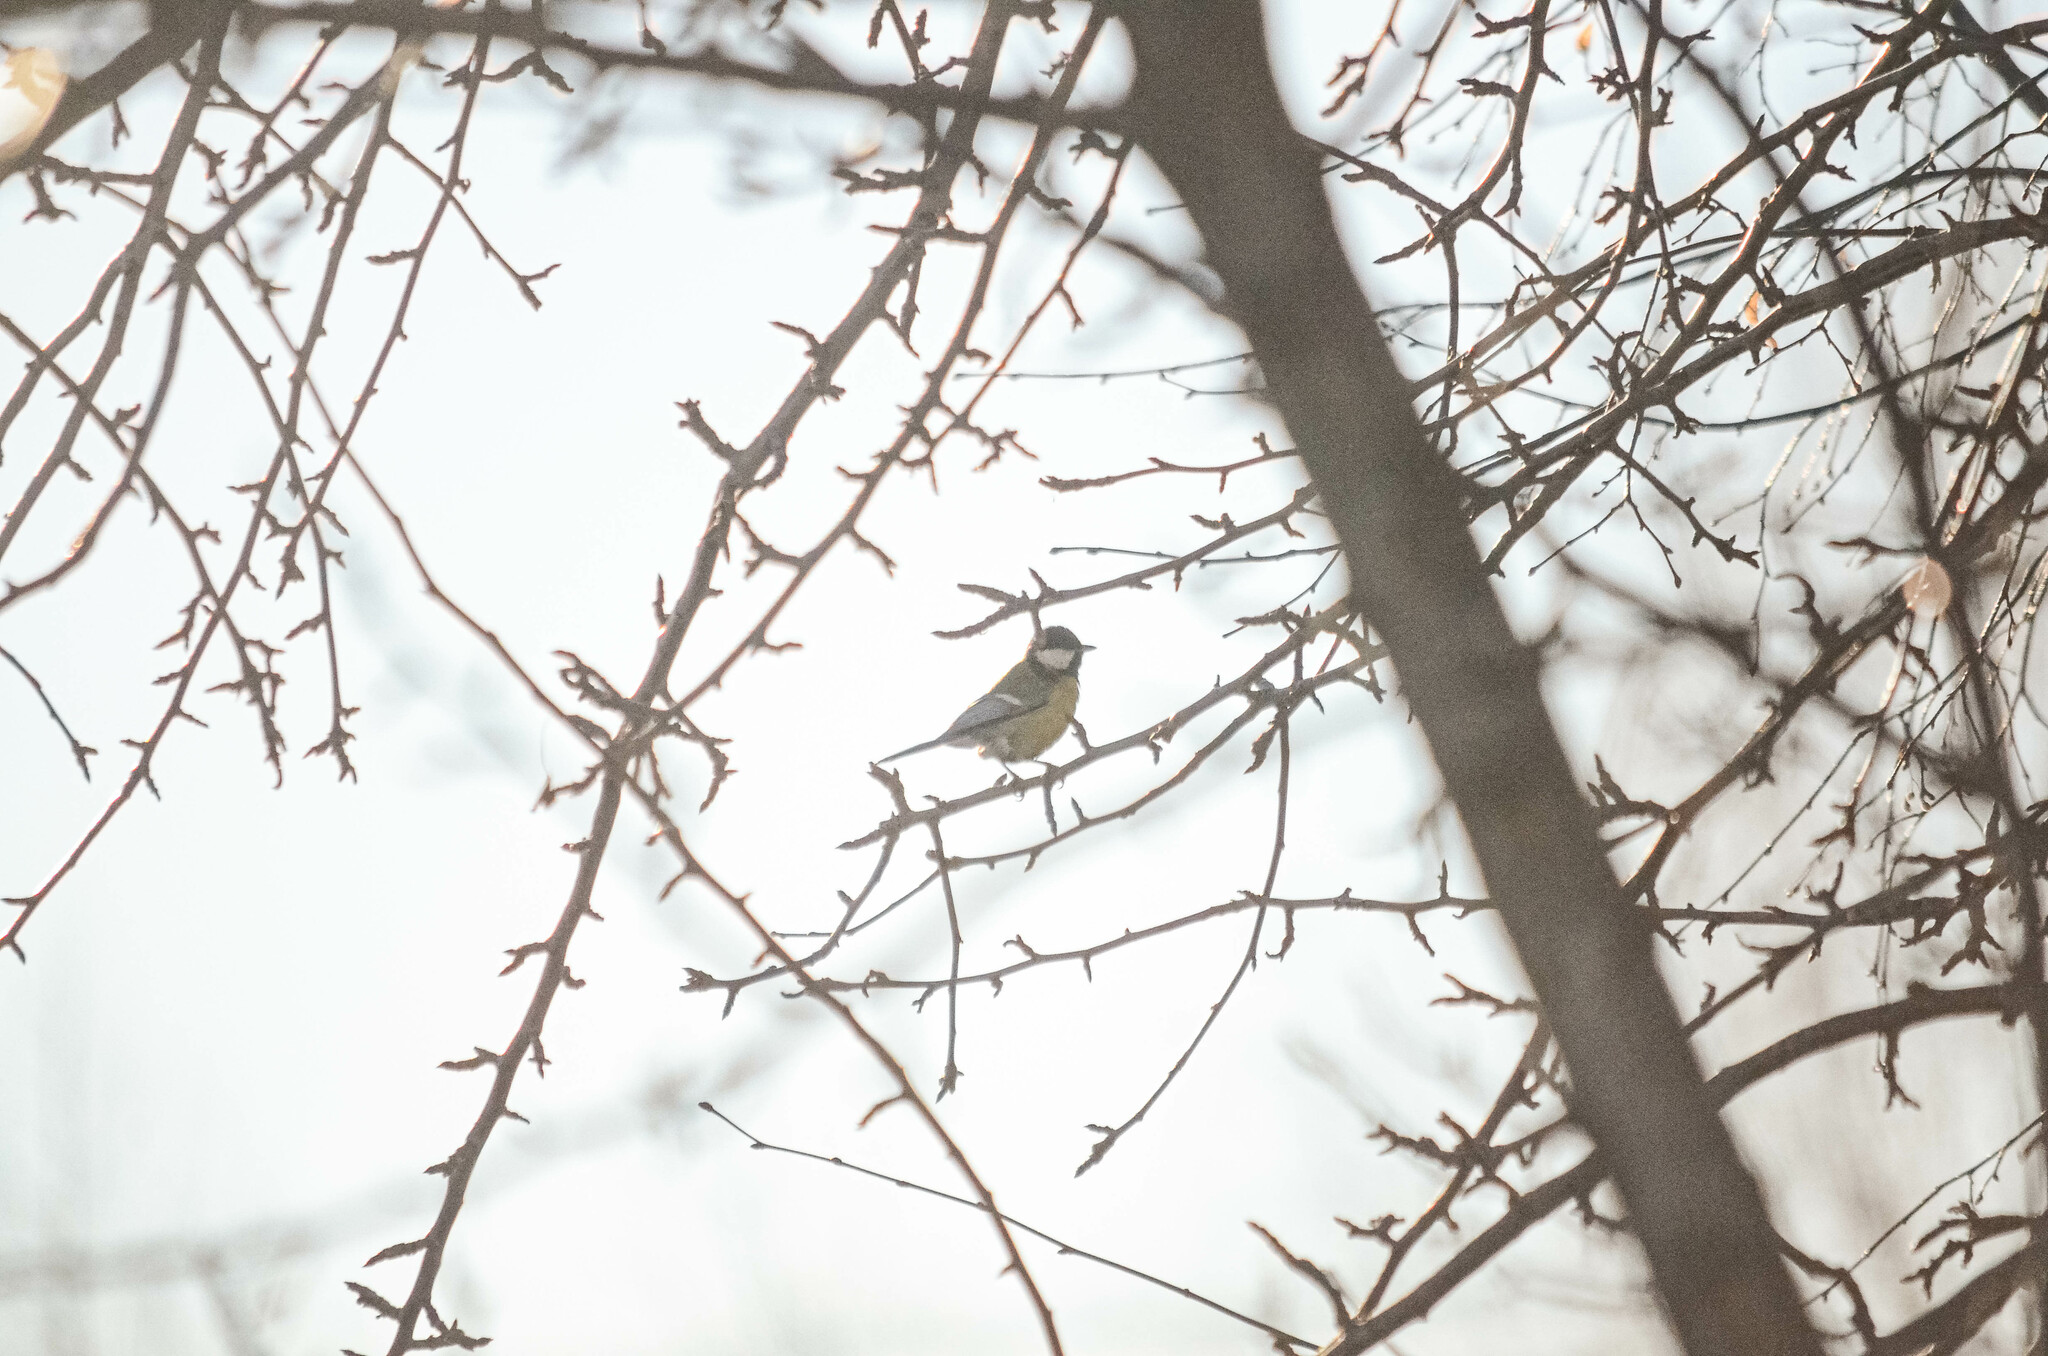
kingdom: Animalia
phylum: Chordata
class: Aves
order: Passeriformes
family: Paridae
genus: Parus
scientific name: Parus major
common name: Great tit
